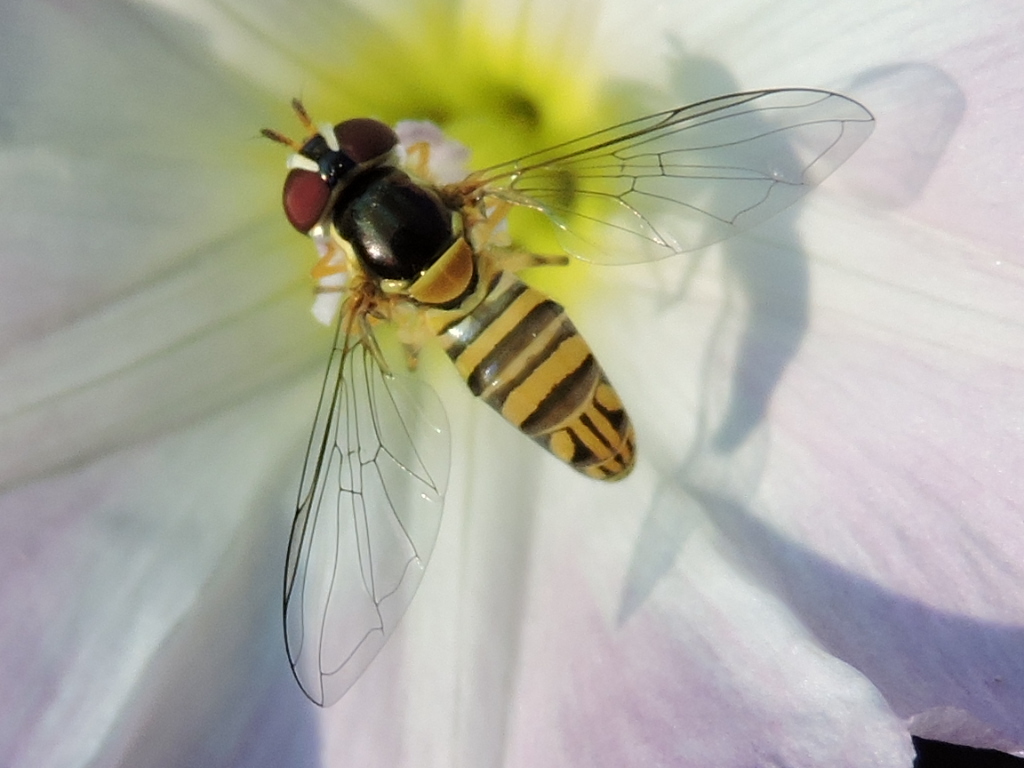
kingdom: Animalia
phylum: Arthropoda
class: Insecta
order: Diptera
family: Syrphidae
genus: Allograpta
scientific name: Allograpta obliqua
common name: Common oblique syrphid
